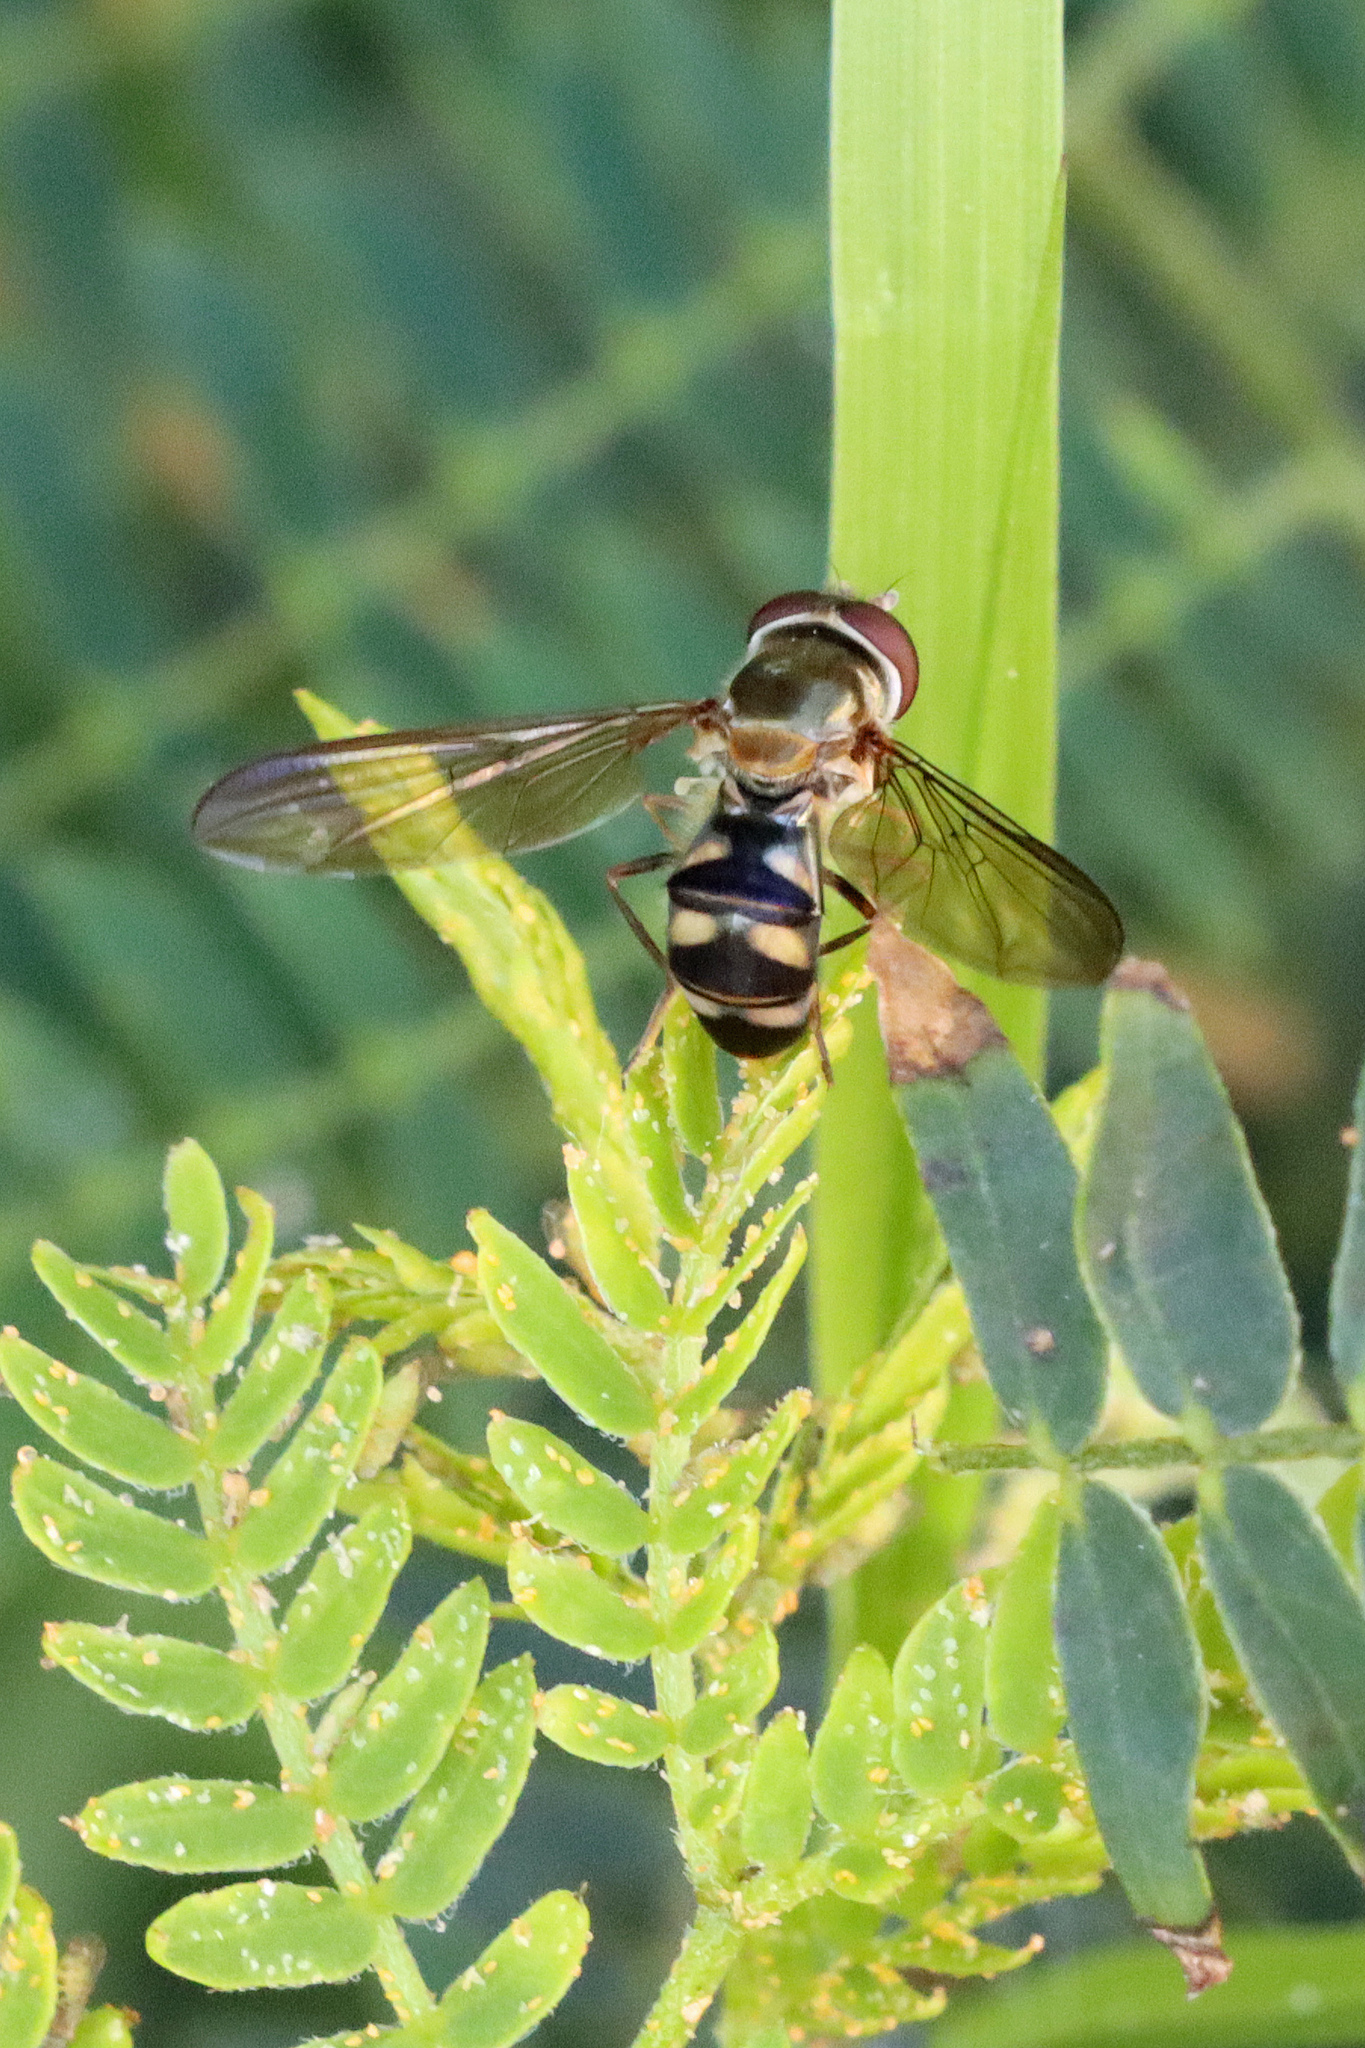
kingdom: Animalia
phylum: Arthropoda
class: Insecta
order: Diptera
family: Syrphidae
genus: Meliscaeva
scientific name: Meliscaeva auricollis
